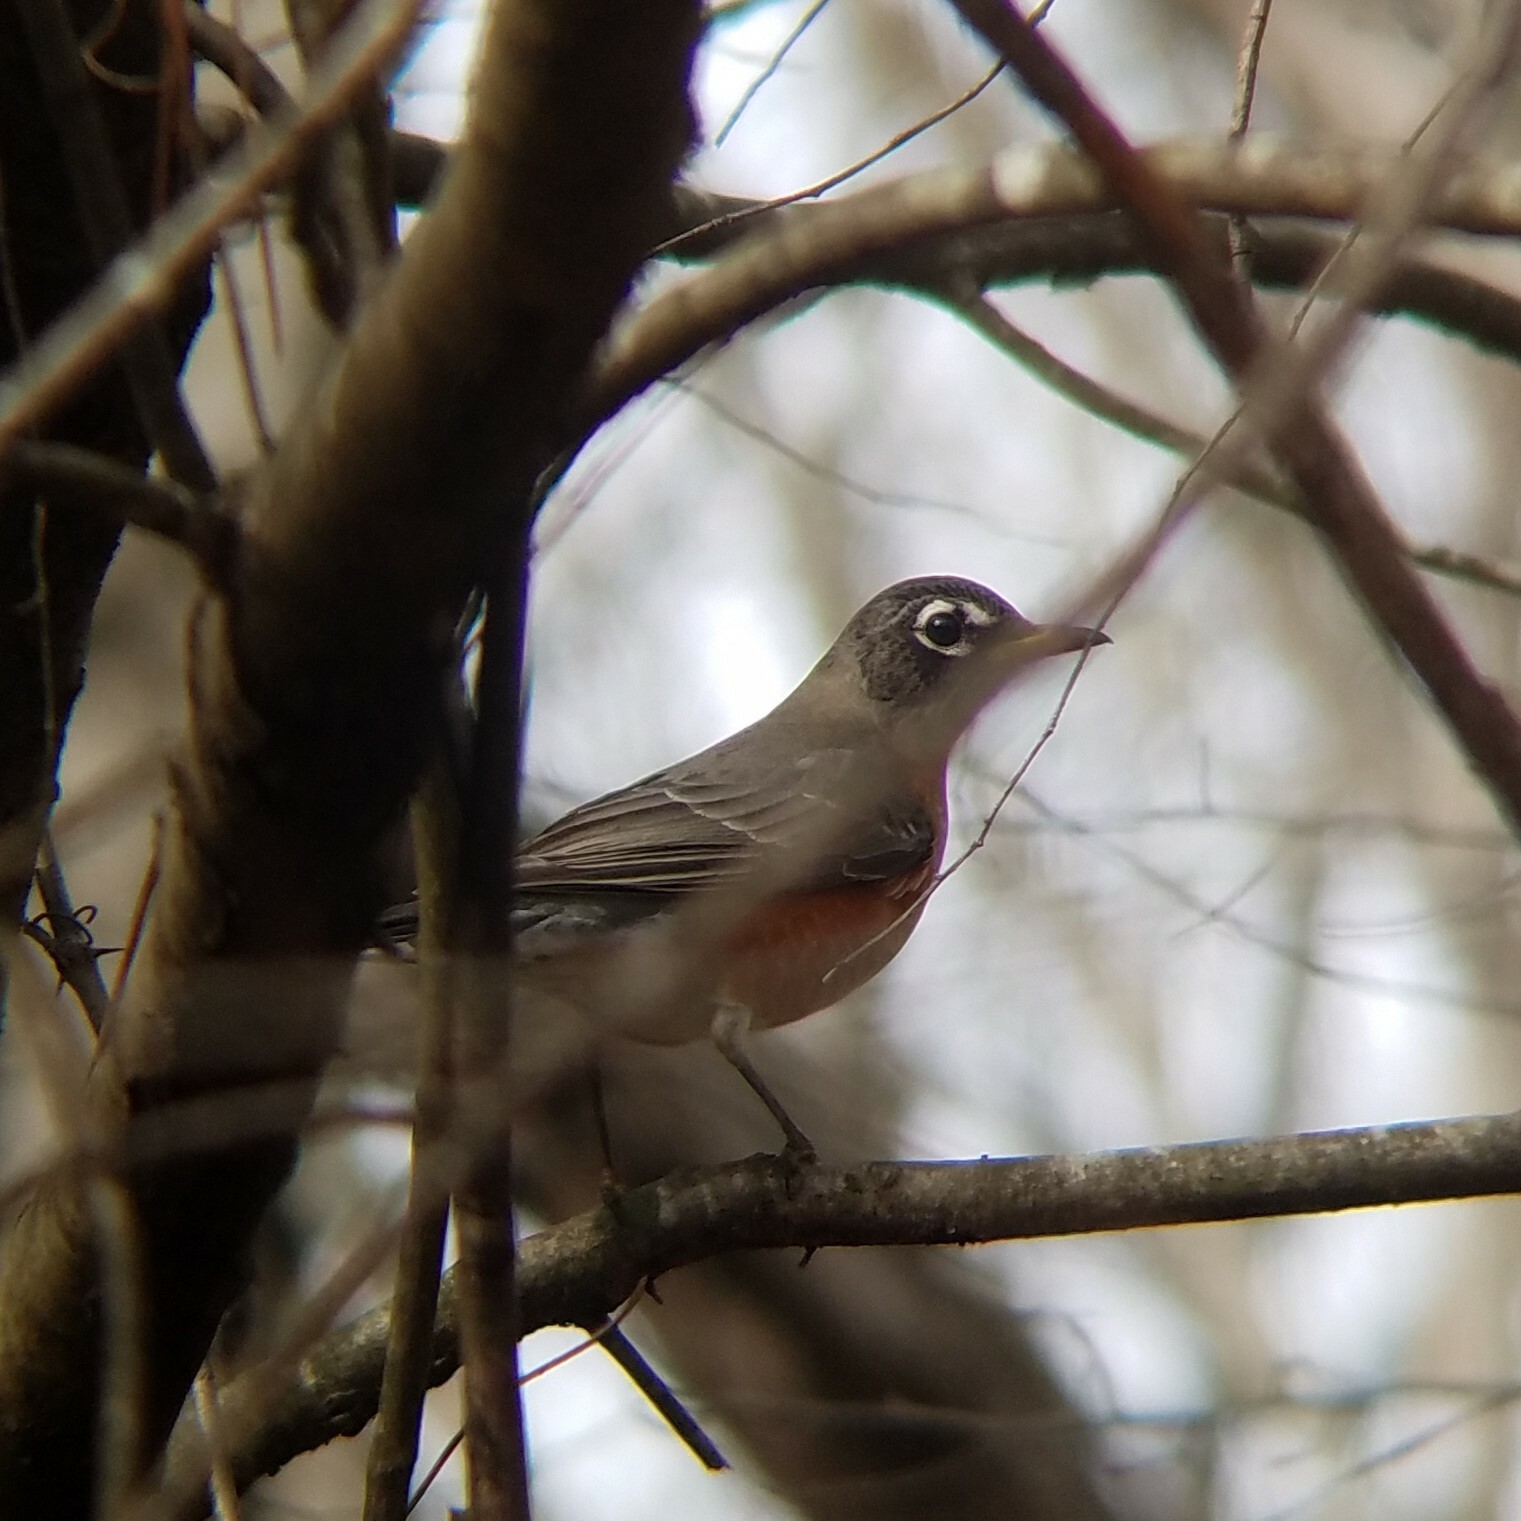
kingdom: Animalia
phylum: Chordata
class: Aves
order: Passeriformes
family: Turdidae
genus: Turdus
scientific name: Turdus migratorius
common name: American robin
